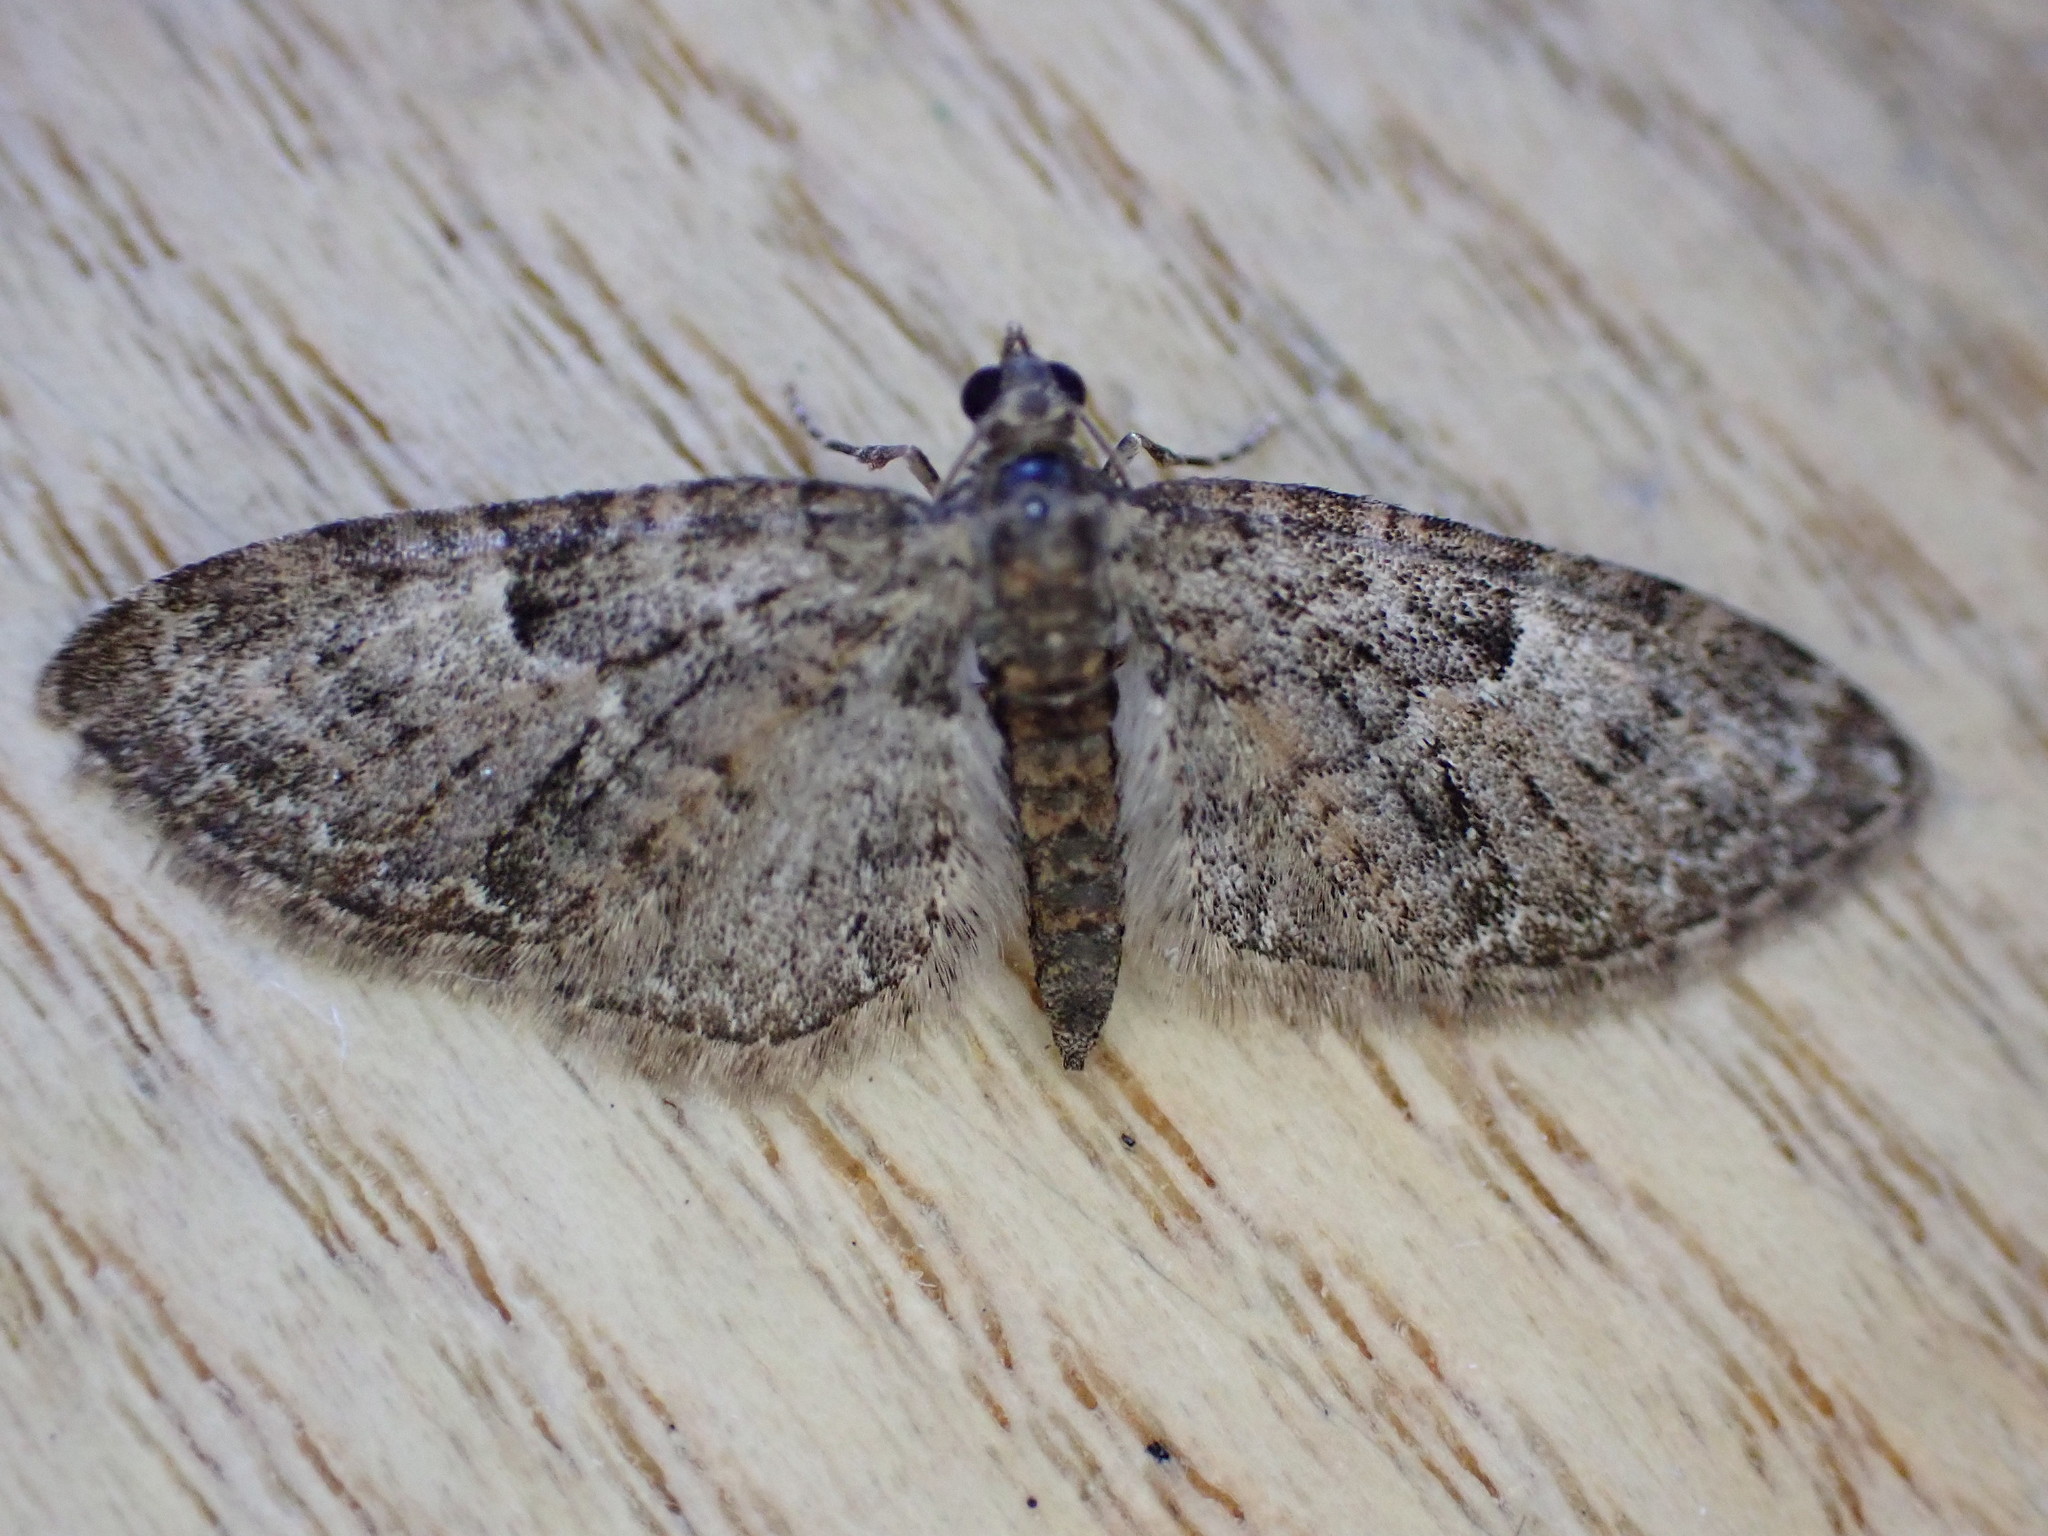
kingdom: Animalia
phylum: Arthropoda
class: Insecta
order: Lepidoptera
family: Geometridae
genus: Eupithecia
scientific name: Eupithecia abbreviata
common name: Brindled pug
